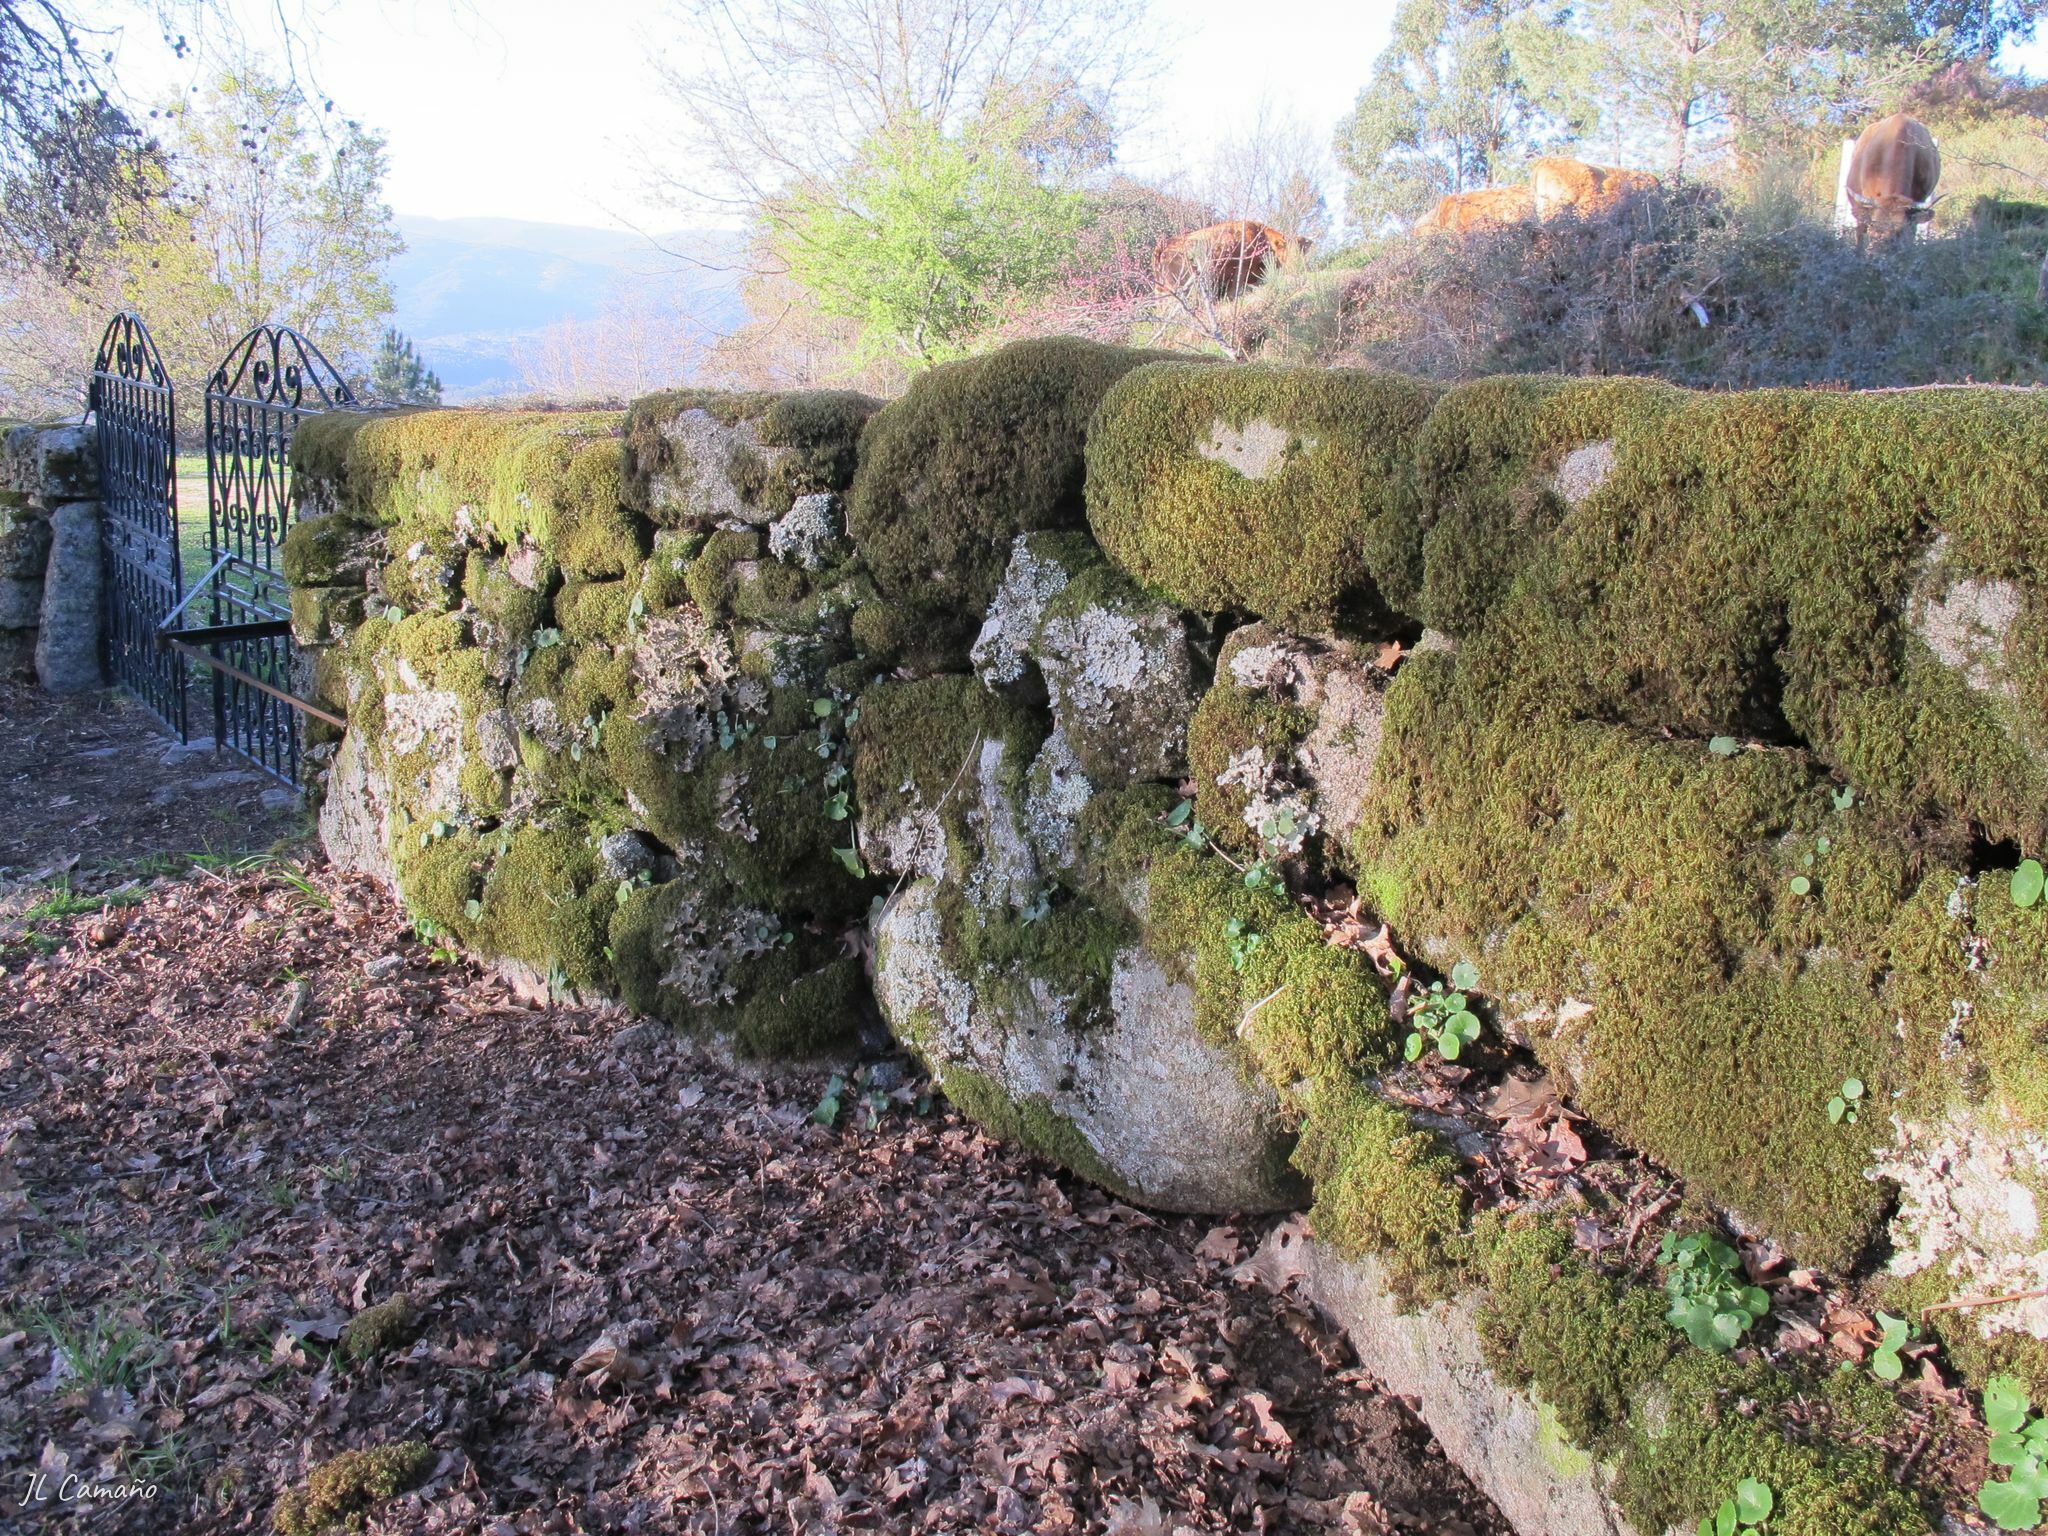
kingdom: Plantae
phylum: Bryophyta
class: Bryopsida
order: Hypnales
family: Lembophyllaceae
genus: Nogopterium
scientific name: Nogopterium gracile
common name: Bird's-foot wing-moss
